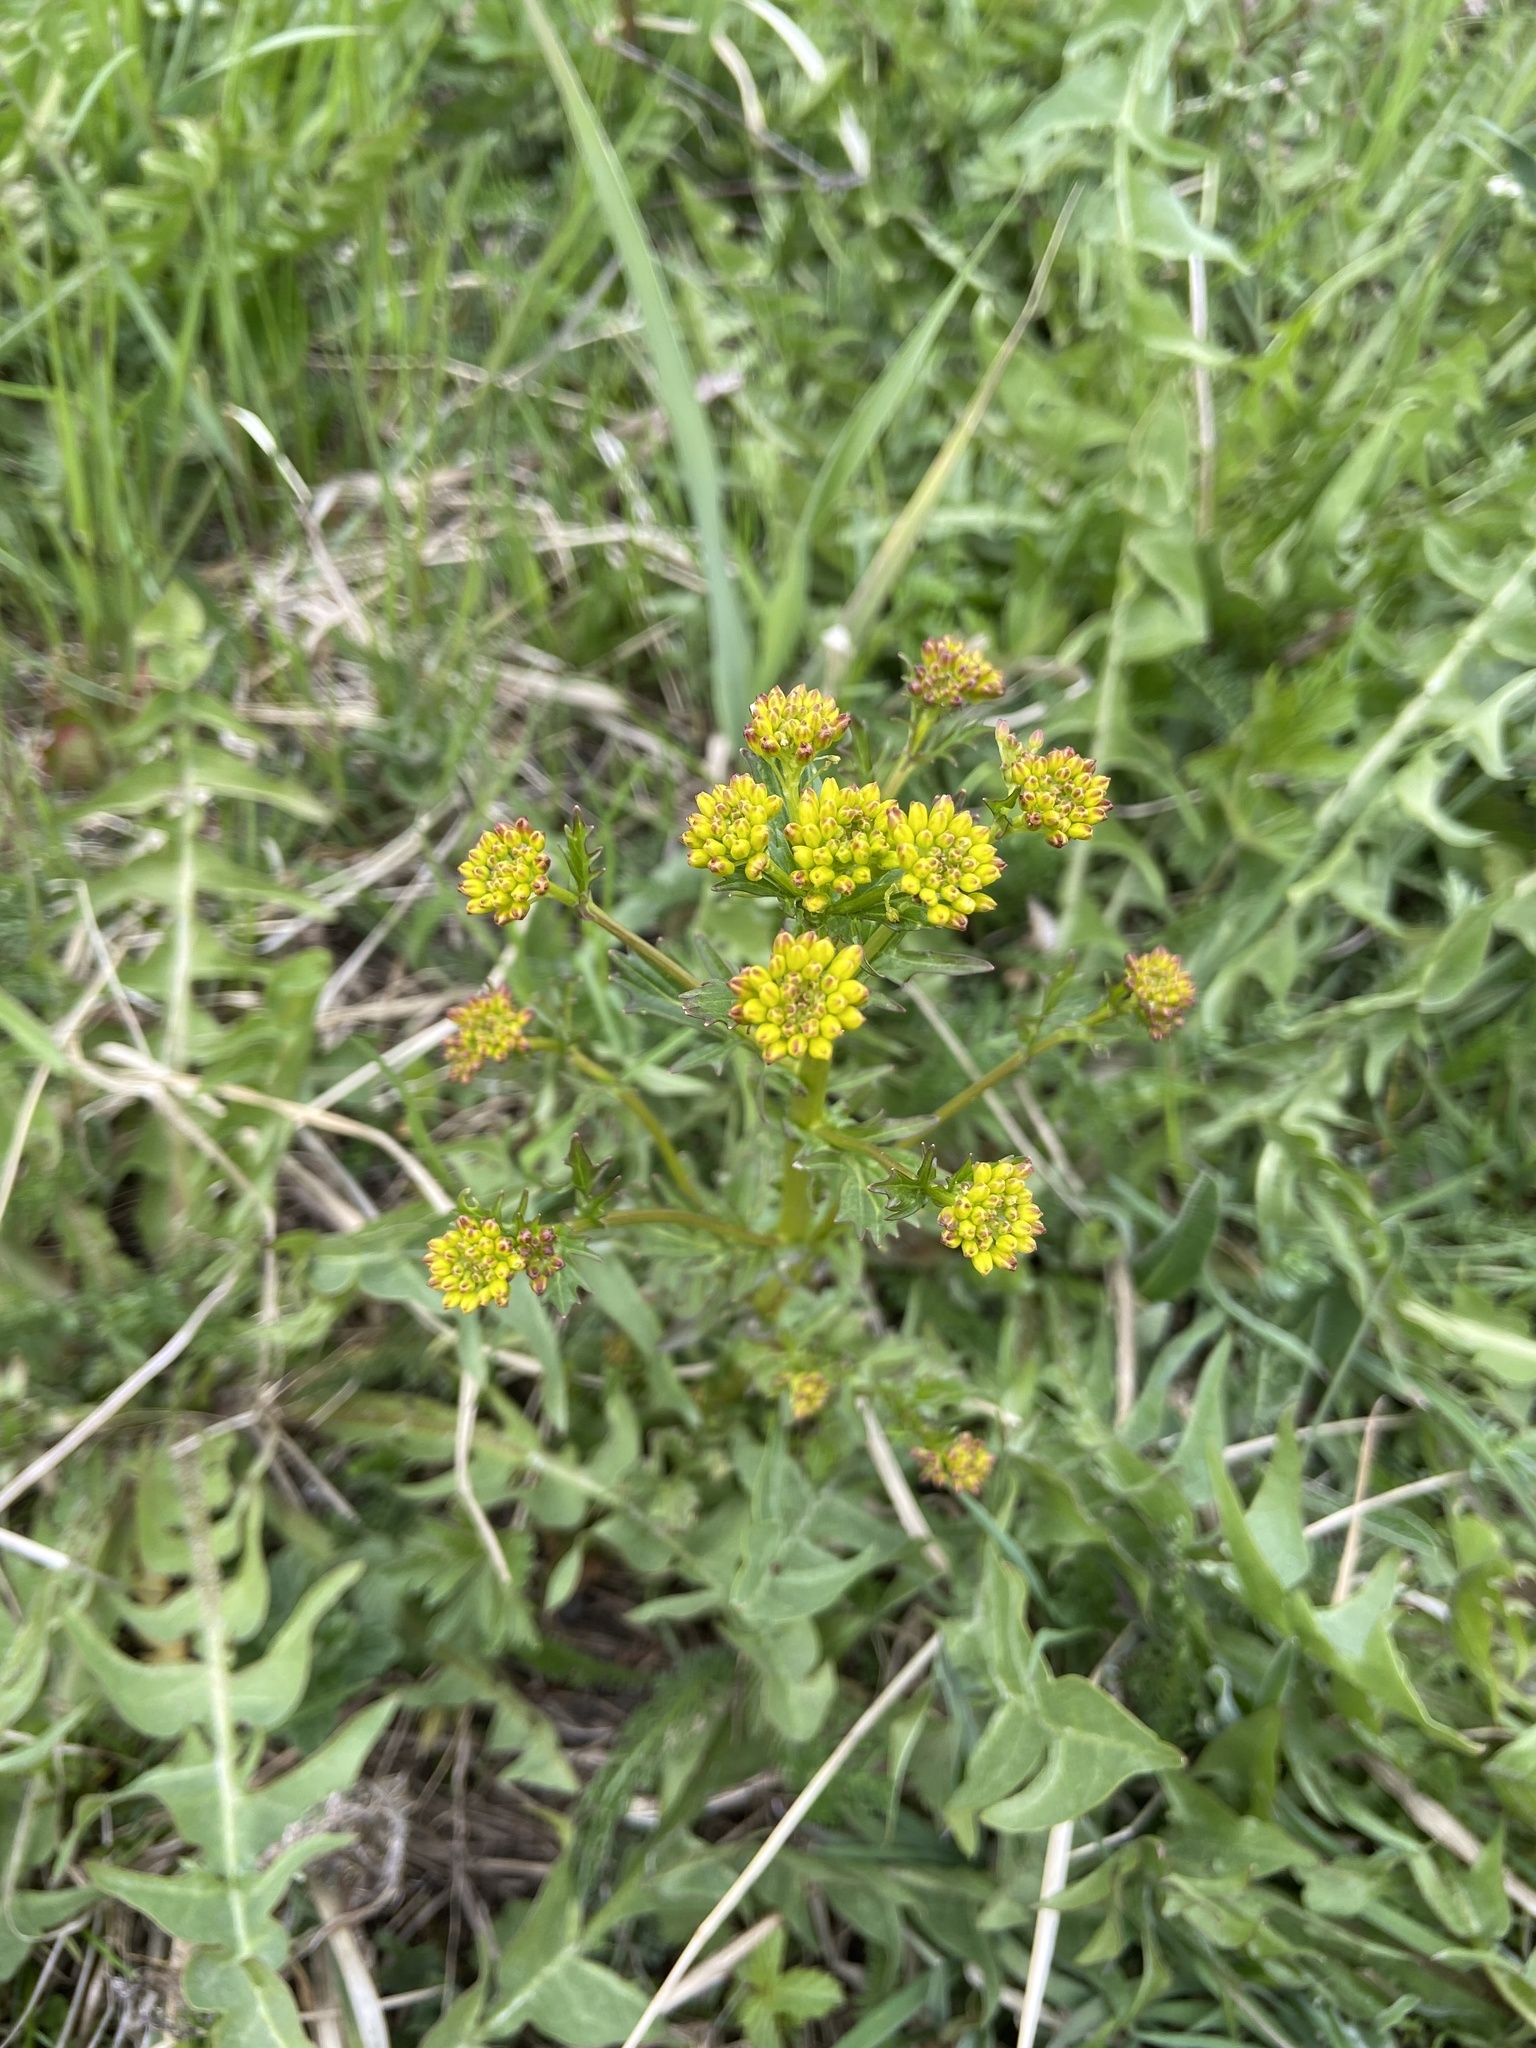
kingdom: Plantae
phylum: Tracheophyta
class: Magnoliopsida
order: Brassicales
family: Brassicaceae
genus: Barbarea
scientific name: Barbarea vulgaris
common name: Cressy-greens
